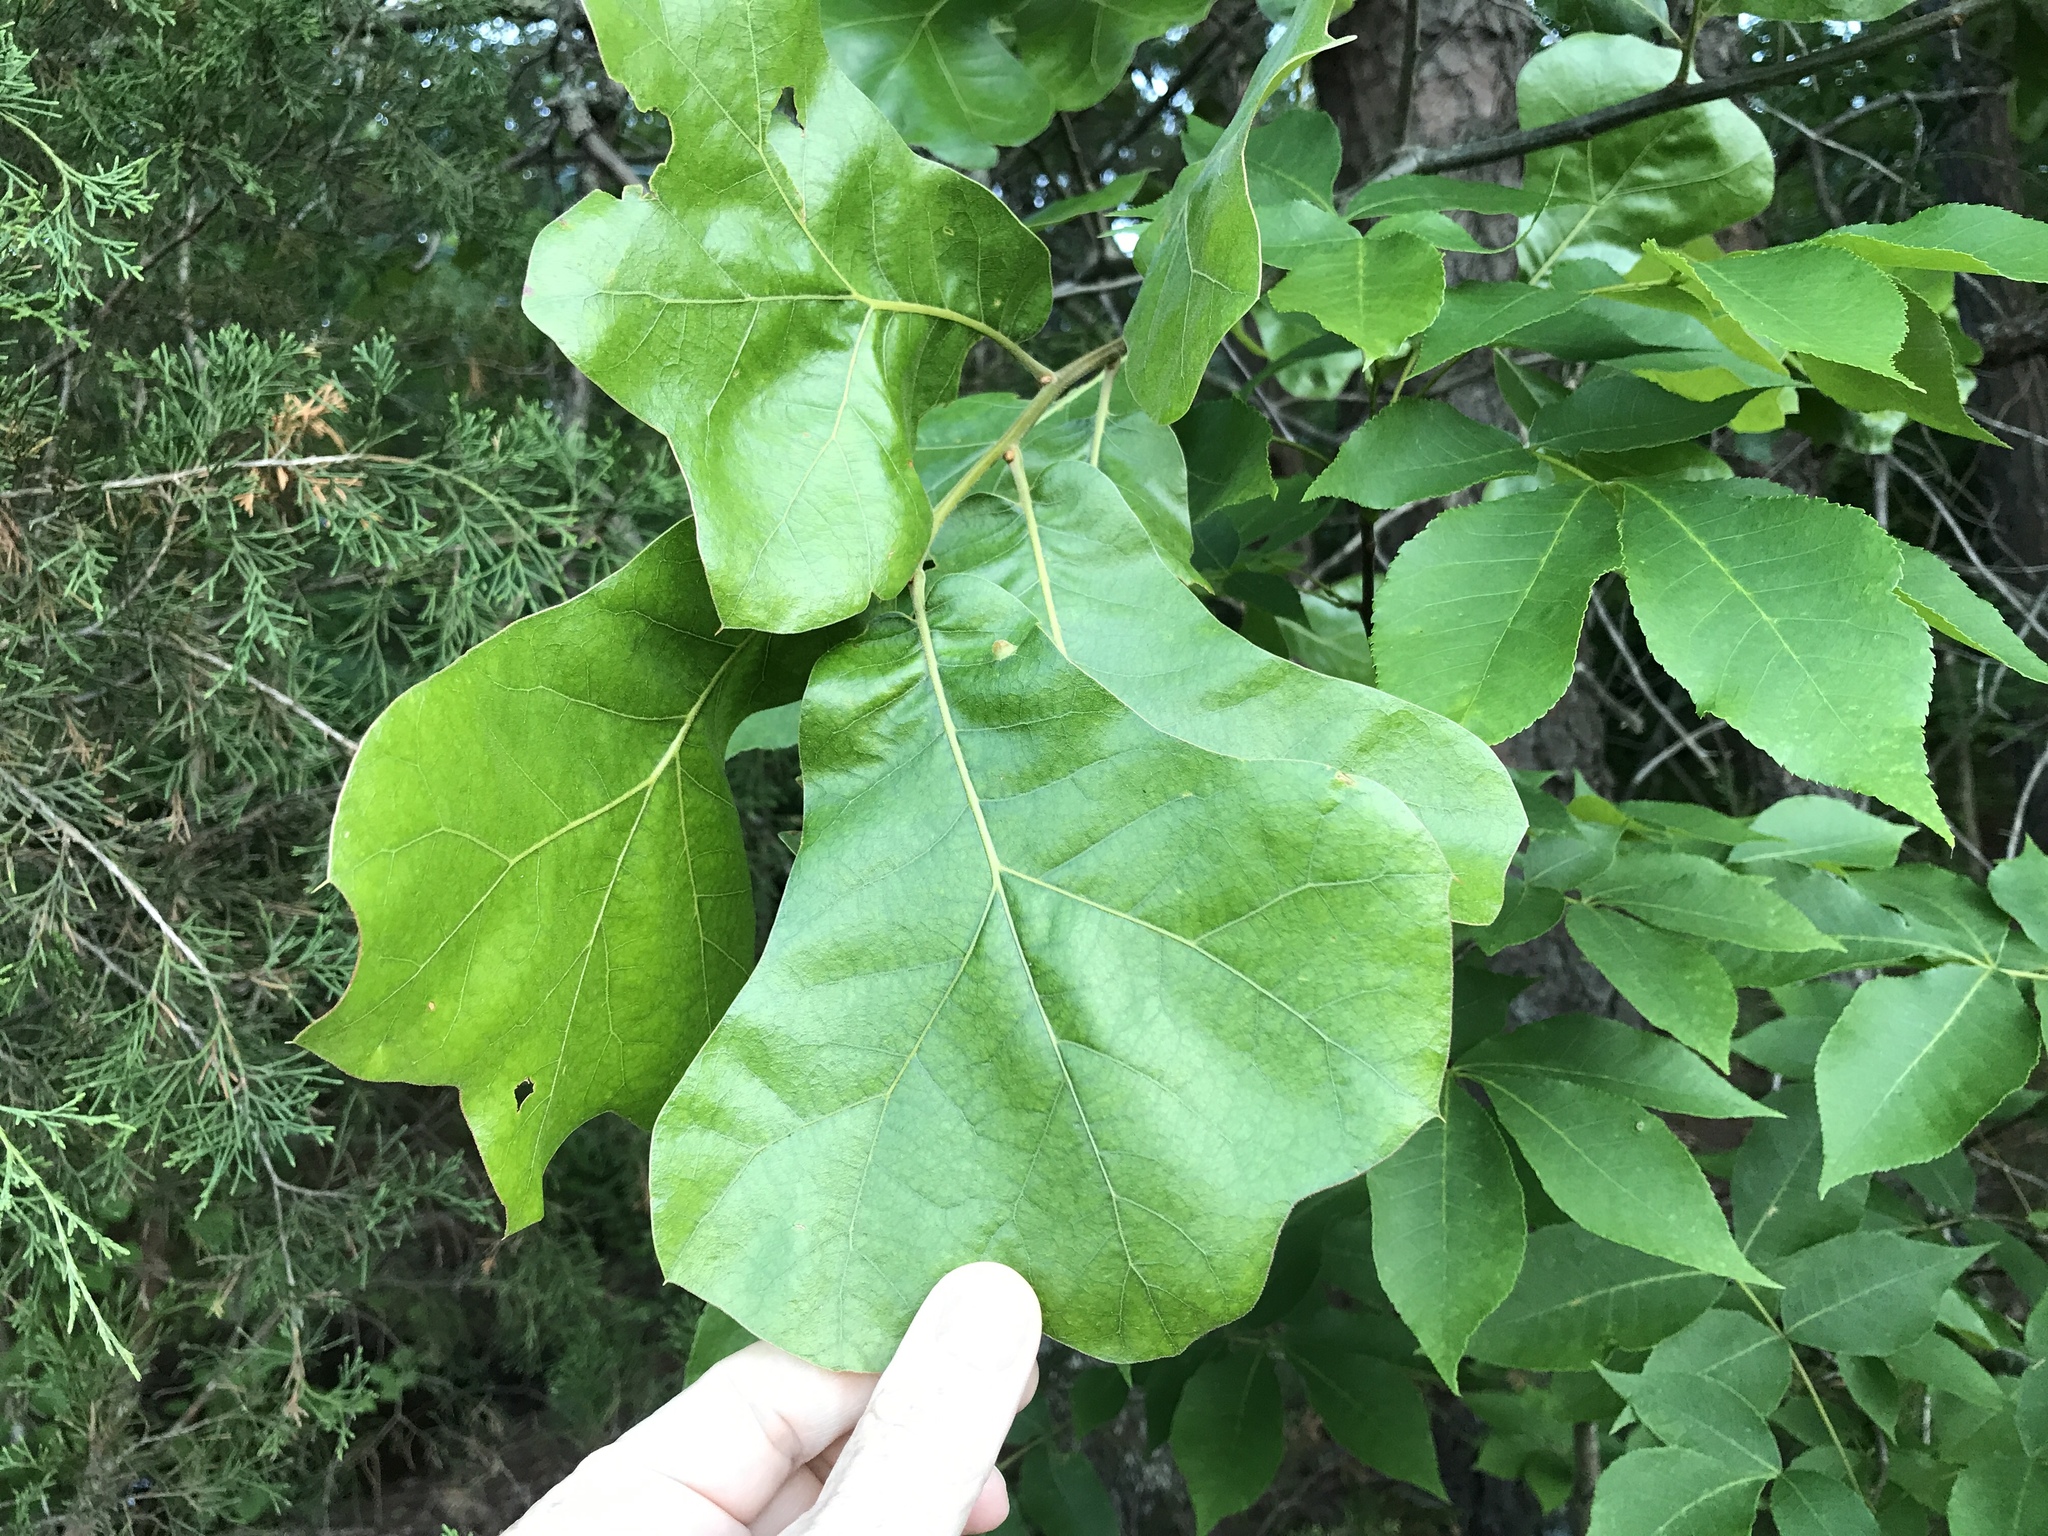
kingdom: Plantae
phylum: Tracheophyta
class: Magnoliopsida
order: Fagales
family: Fagaceae
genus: Quercus
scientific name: Quercus marilandica
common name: Blackjack oak
